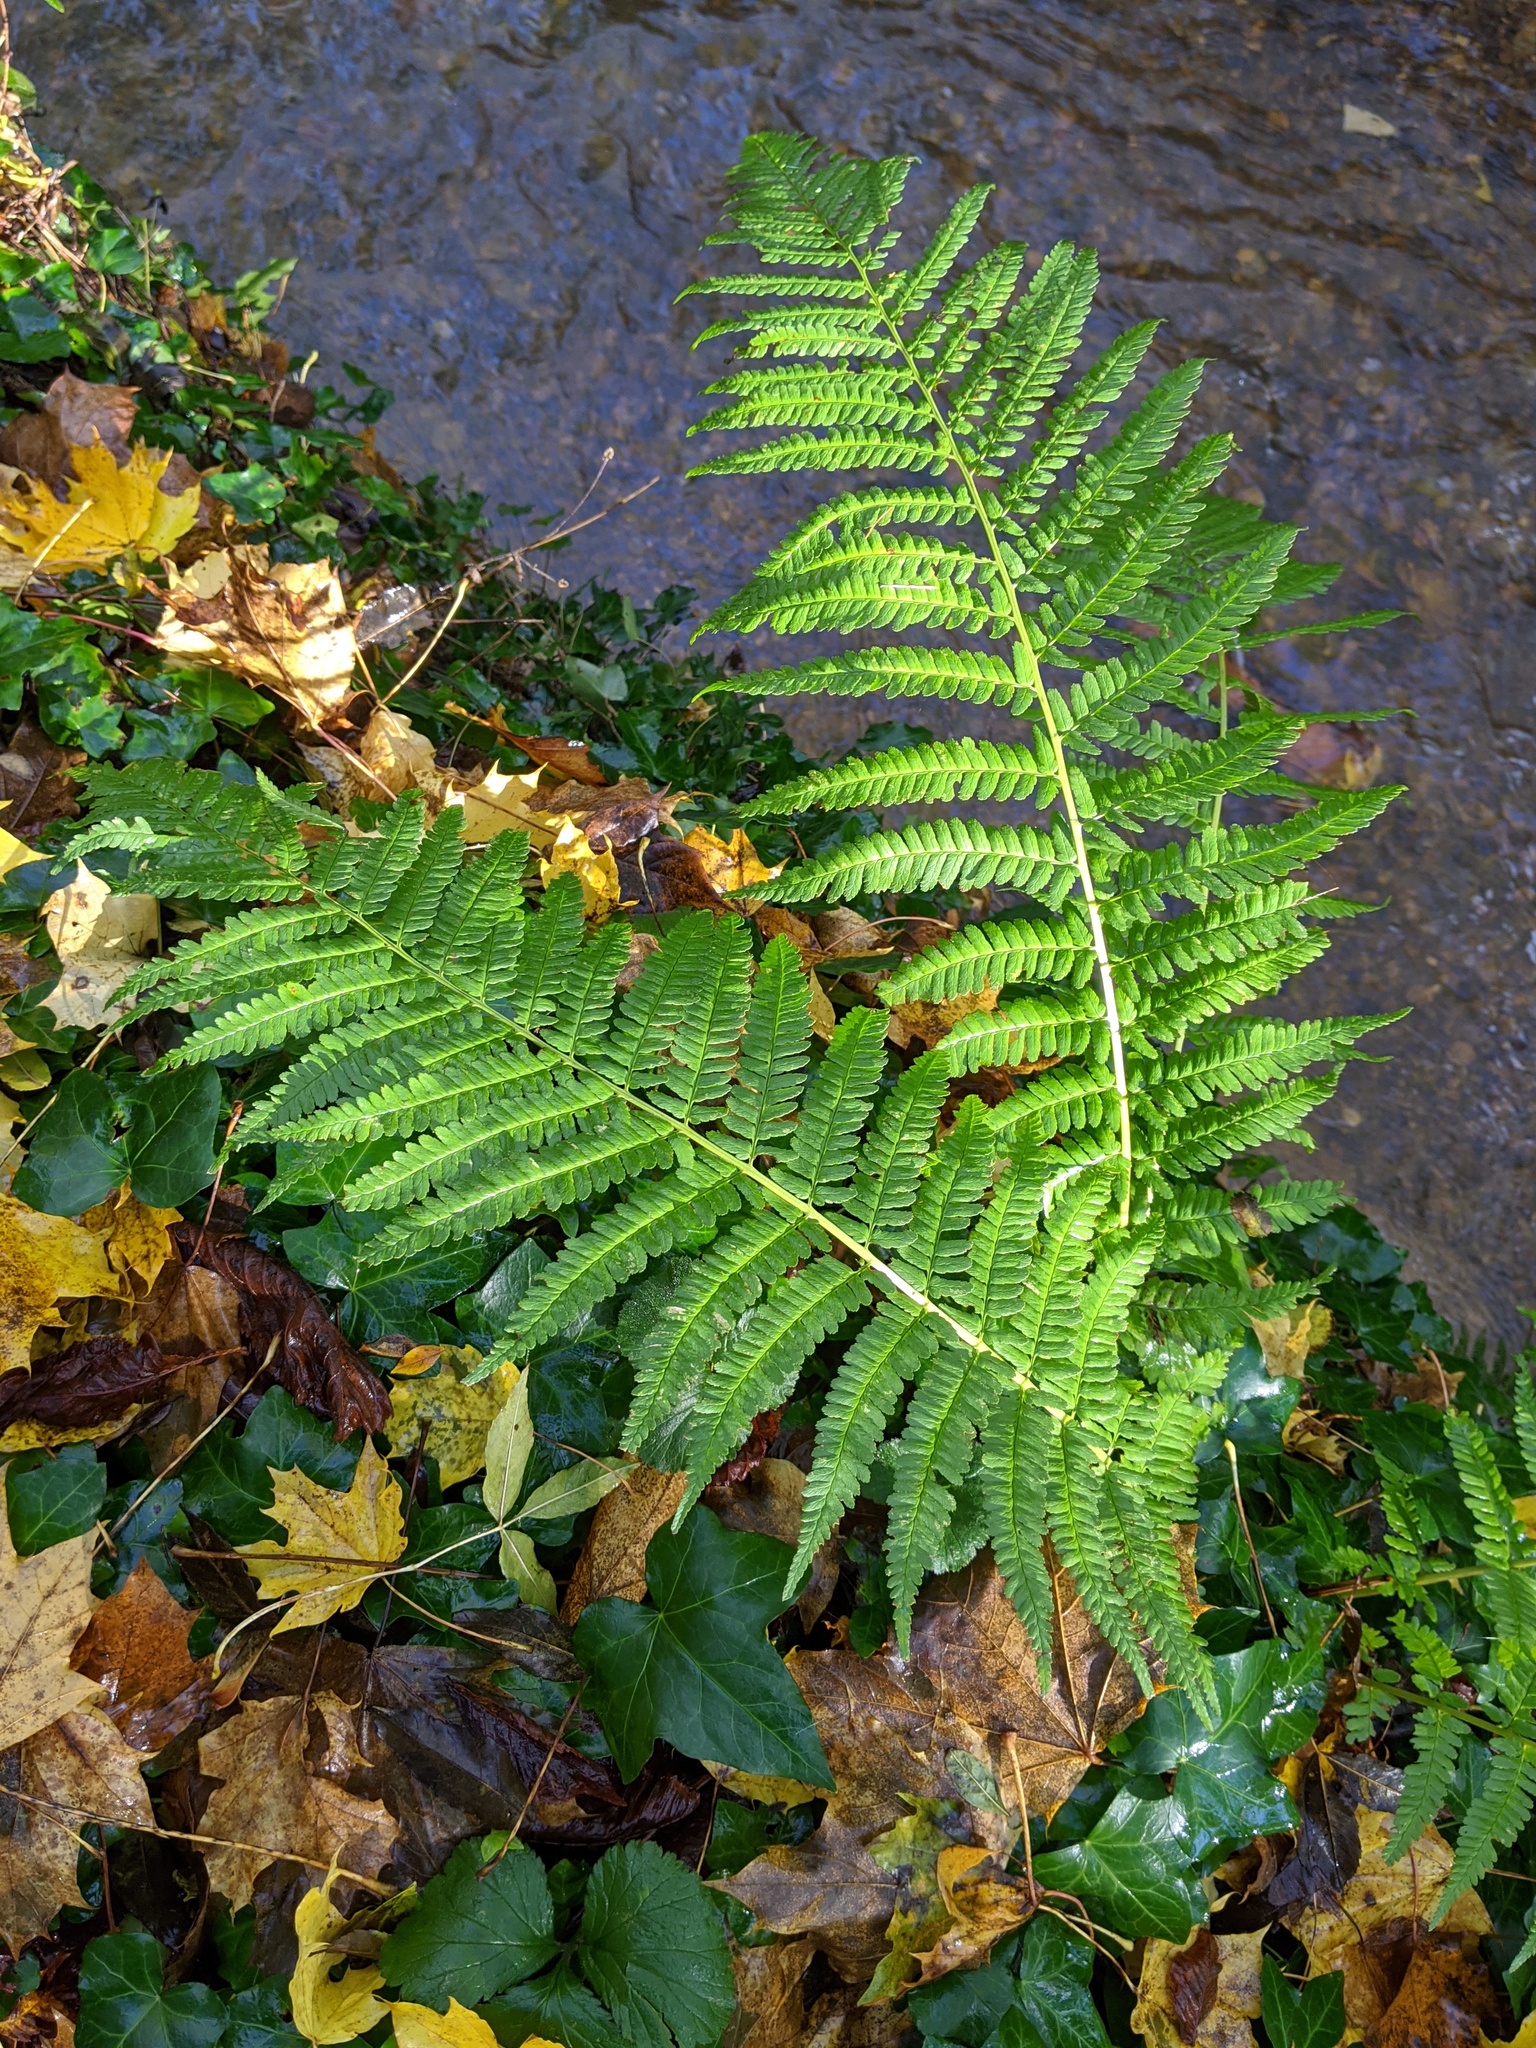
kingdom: Plantae
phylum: Tracheophyta
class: Polypodiopsida
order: Polypodiales
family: Dryopteridaceae
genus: Dryopteris
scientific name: Dryopteris filix-mas
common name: Male fern
